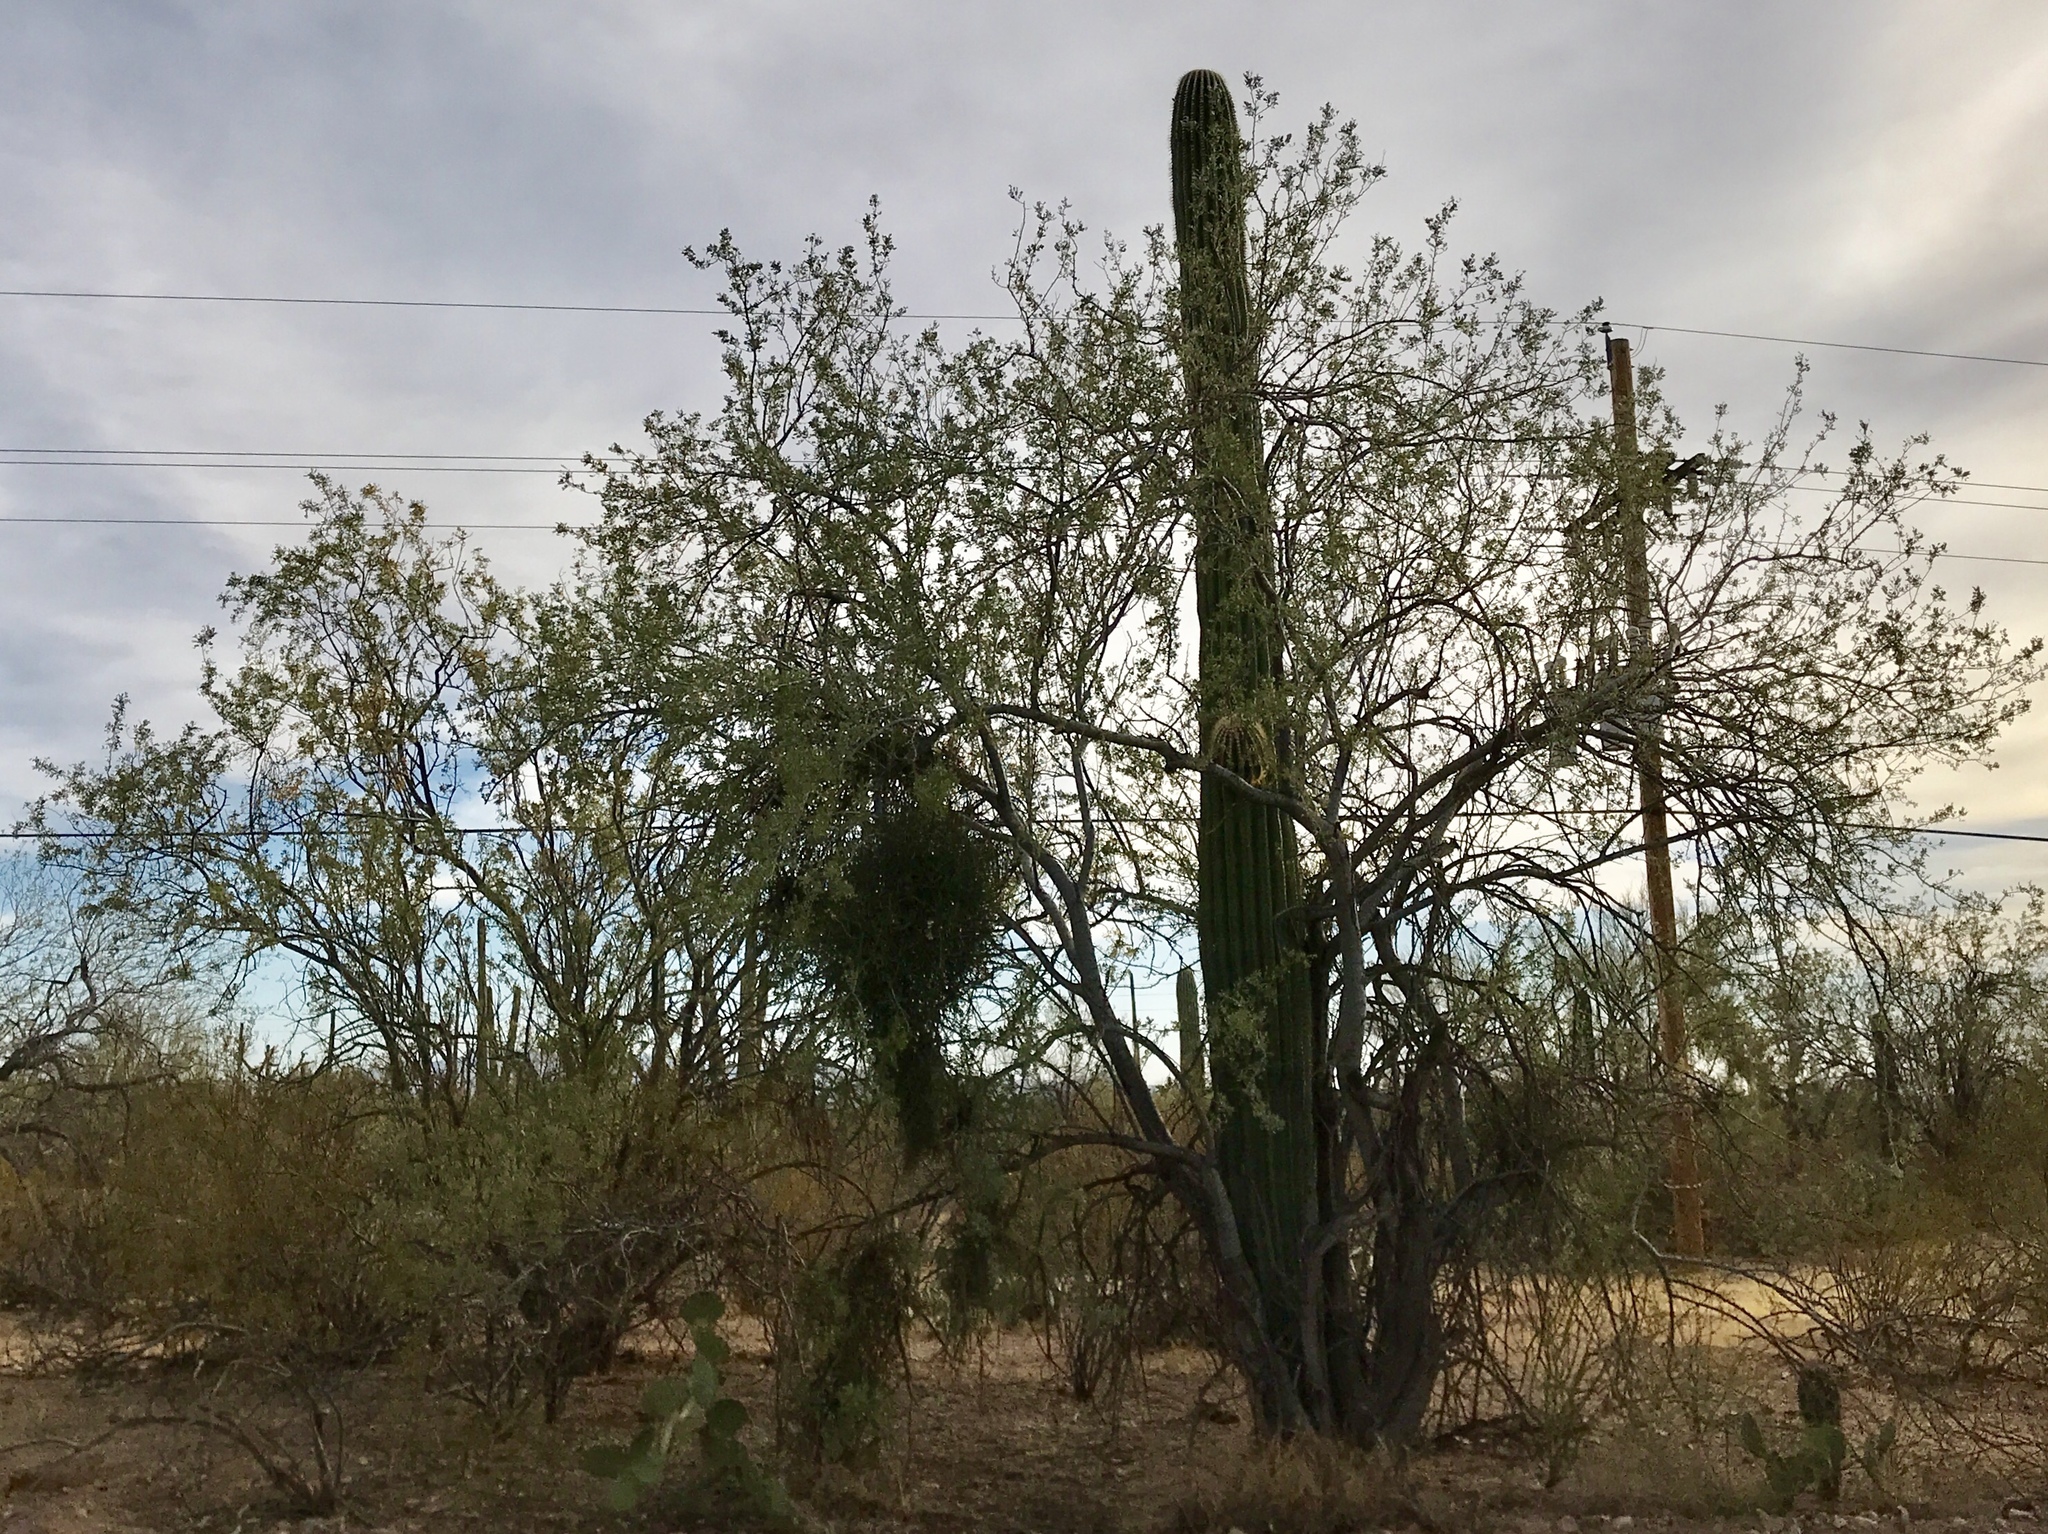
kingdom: Plantae
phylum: Tracheophyta
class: Magnoliopsida
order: Fabales
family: Fabaceae
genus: Olneya
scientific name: Olneya tesota
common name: Desert ironwood
